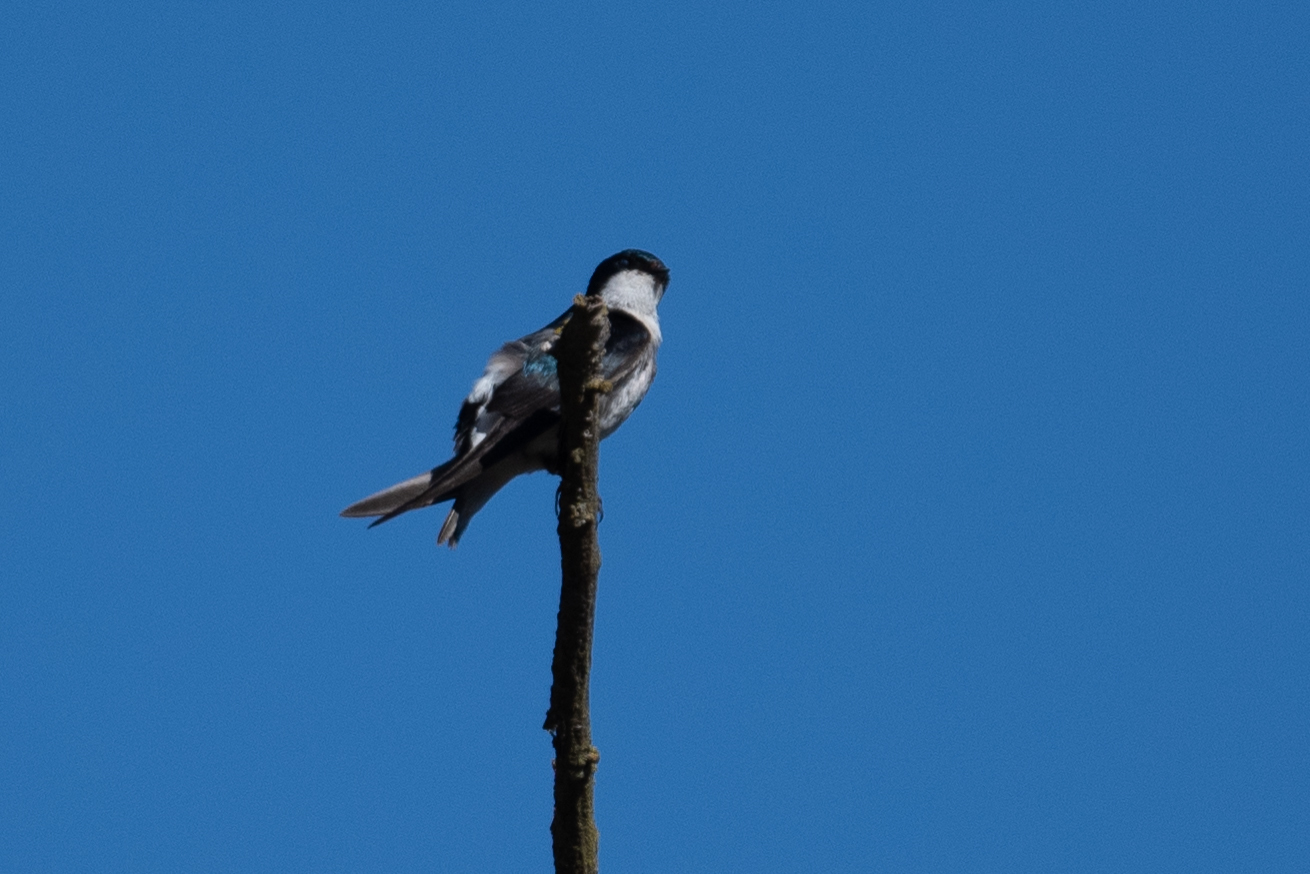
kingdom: Animalia
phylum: Chordata
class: Aves
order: Passeriformes
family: Hirundinidae
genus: Tachycineta
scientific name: Tachycineta bicolor
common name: Tree swallow
